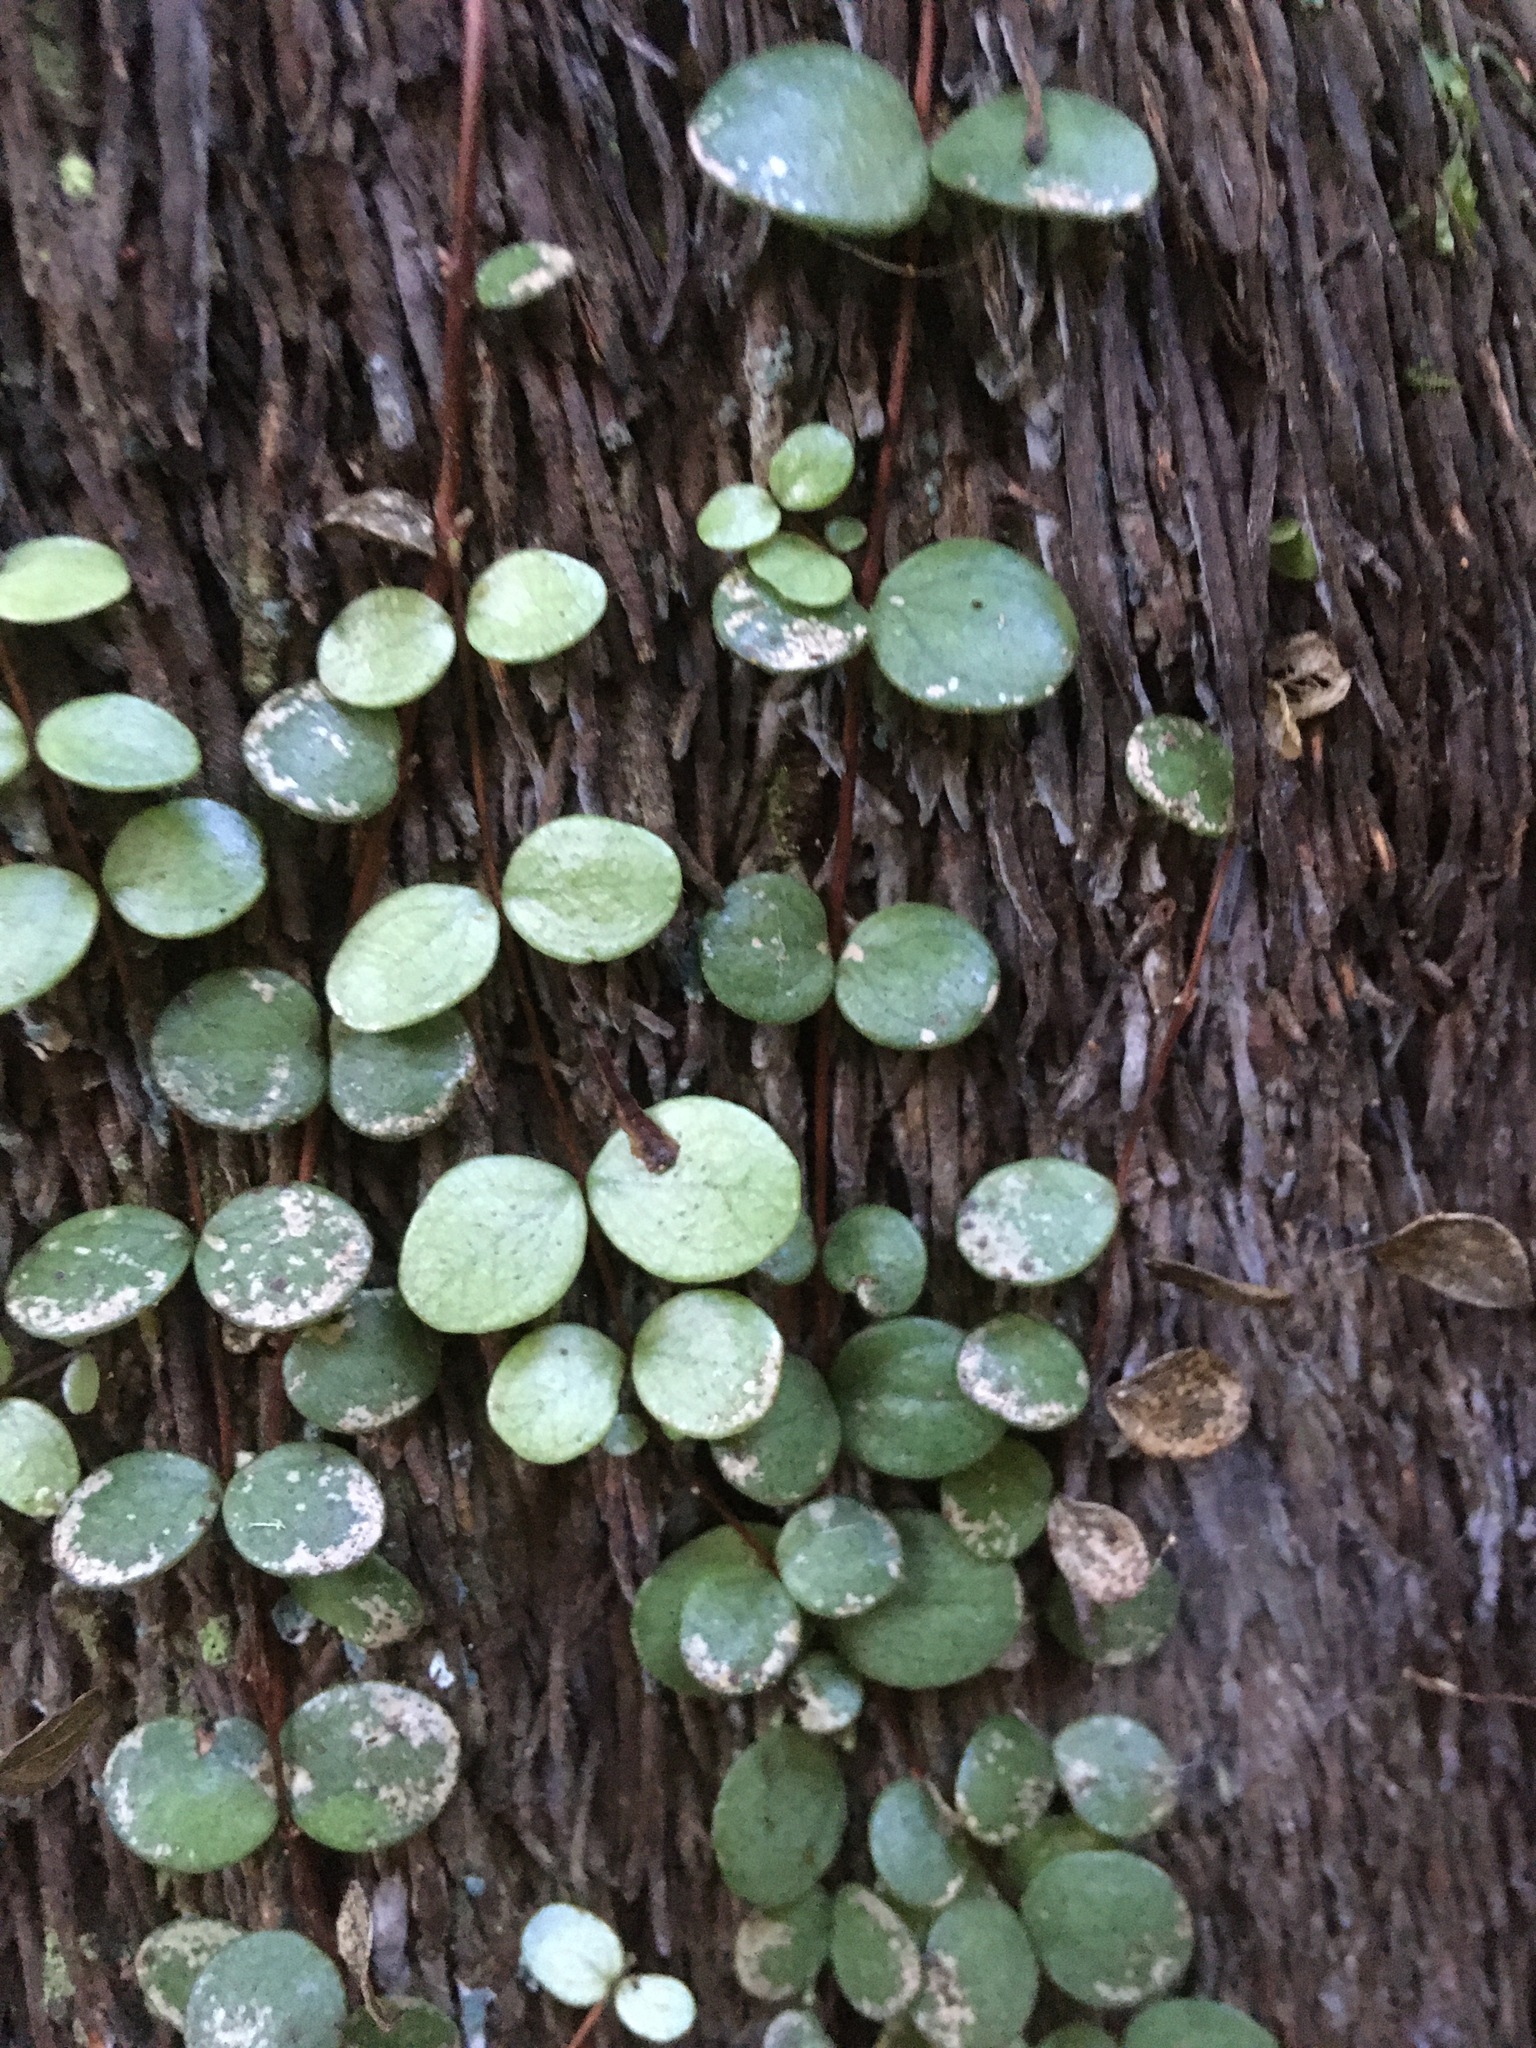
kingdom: Plantae
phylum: Tracheophyta
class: Magnoliopsida
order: Myrtales
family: Myrtaceae
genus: Metrosideros
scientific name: Metrosideros perforata
